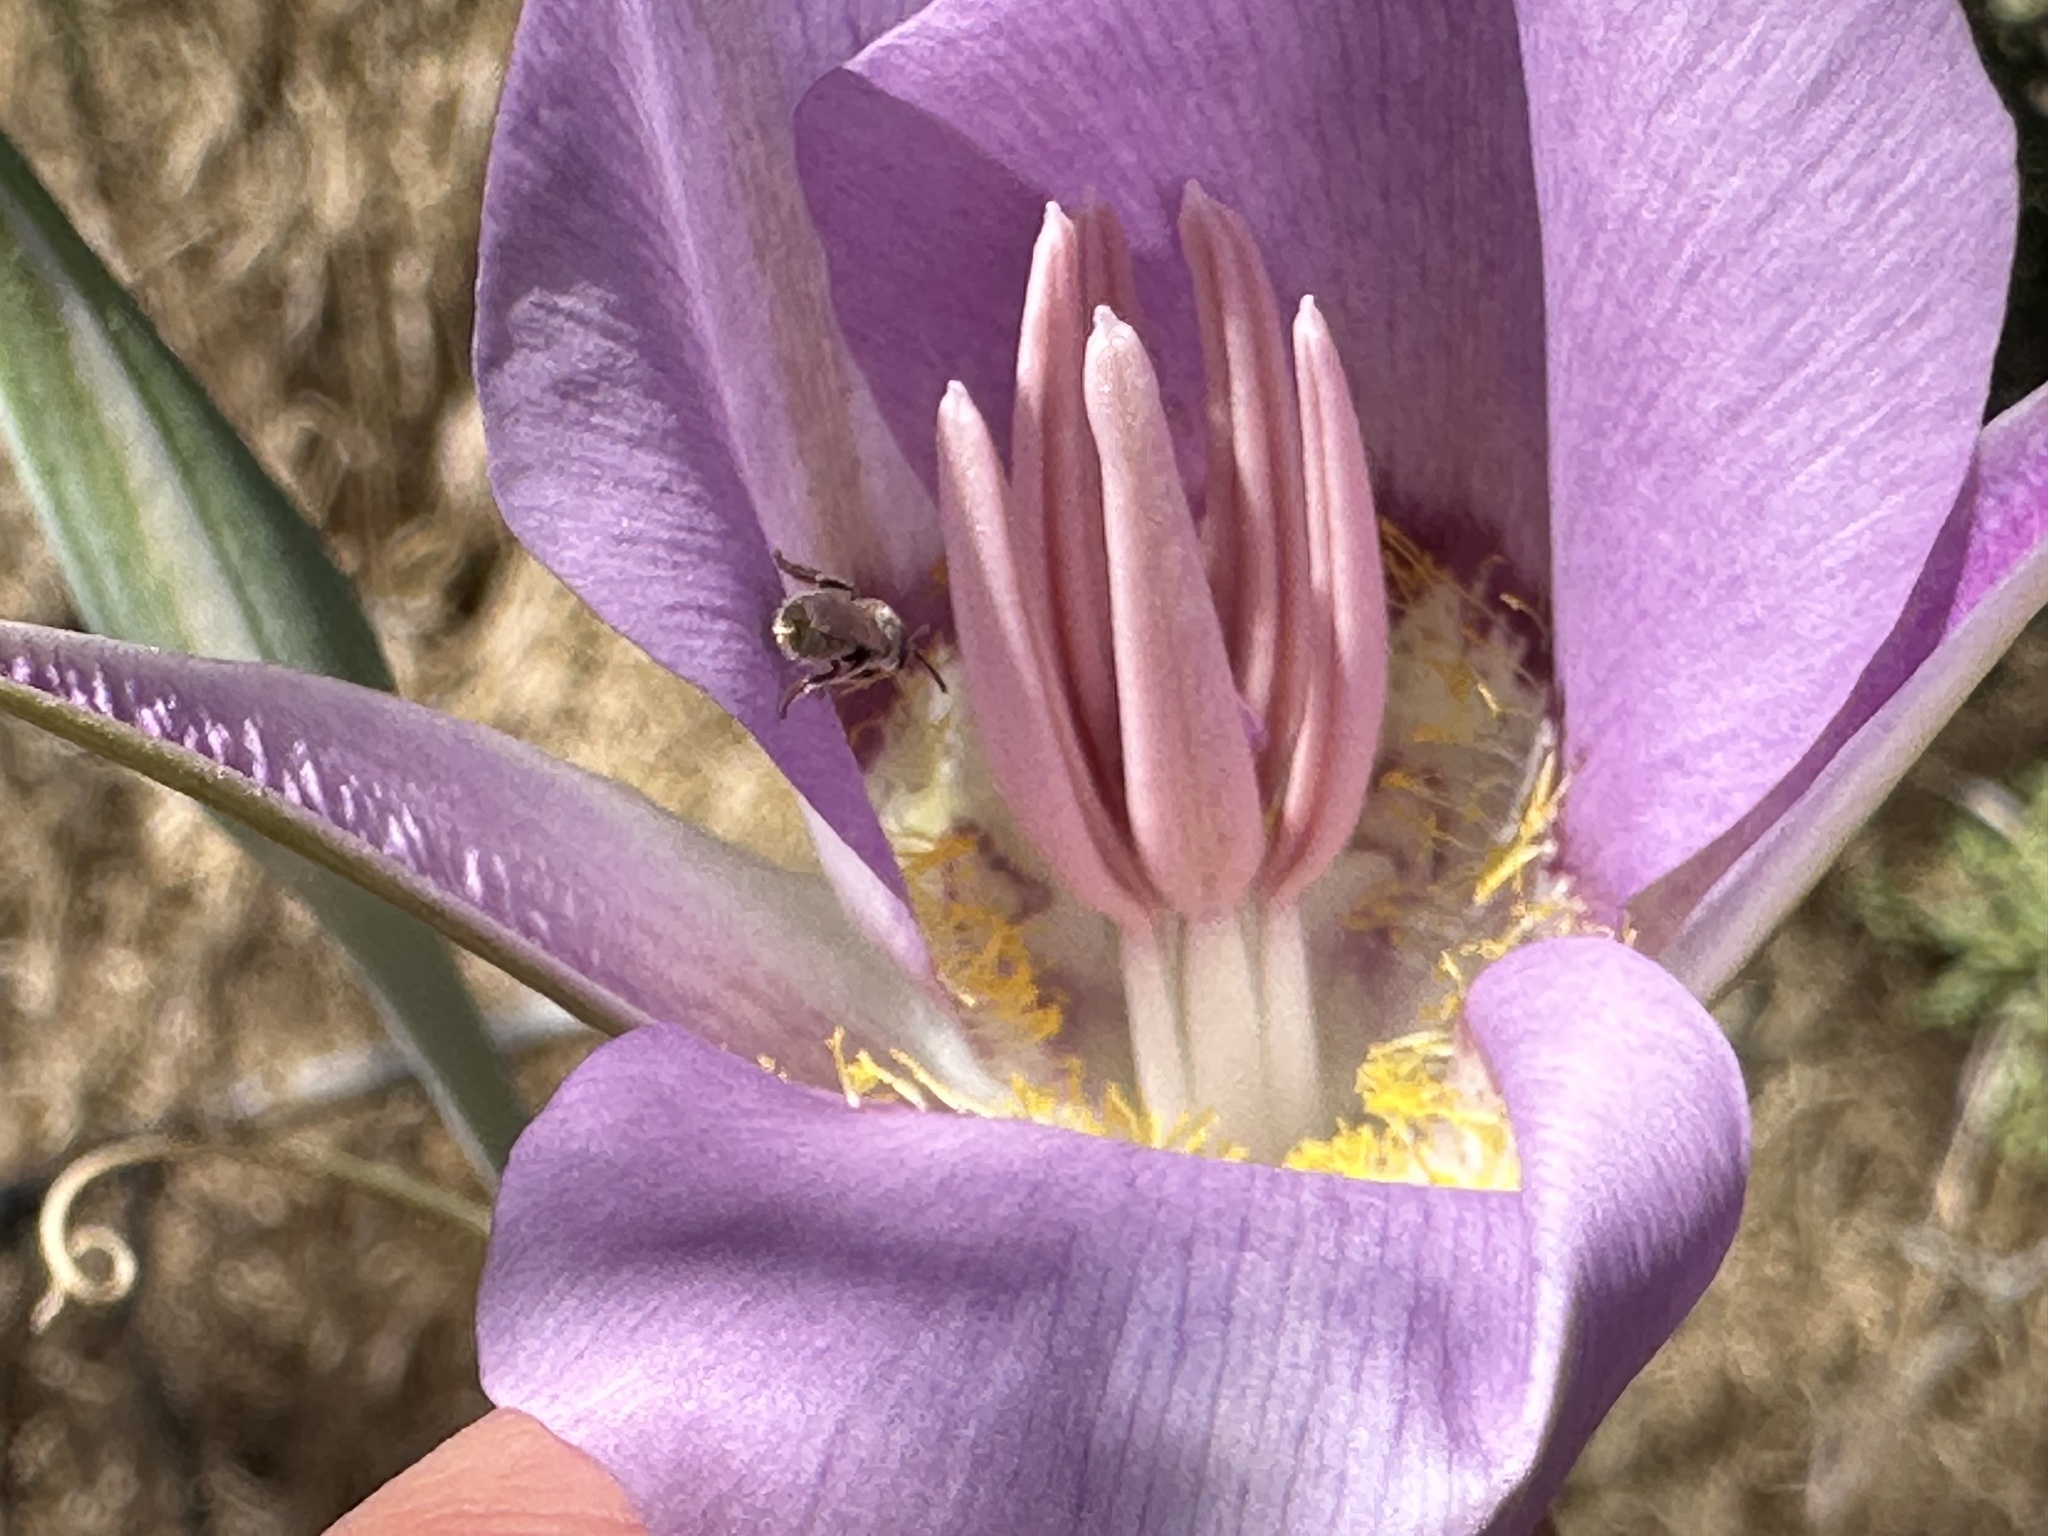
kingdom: Plantae
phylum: Tracheophyta
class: Liliopsida
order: Liliales
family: Liliaceae
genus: Calochortus
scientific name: Calochortus macrocarpus
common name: Green-band mariposa lily
